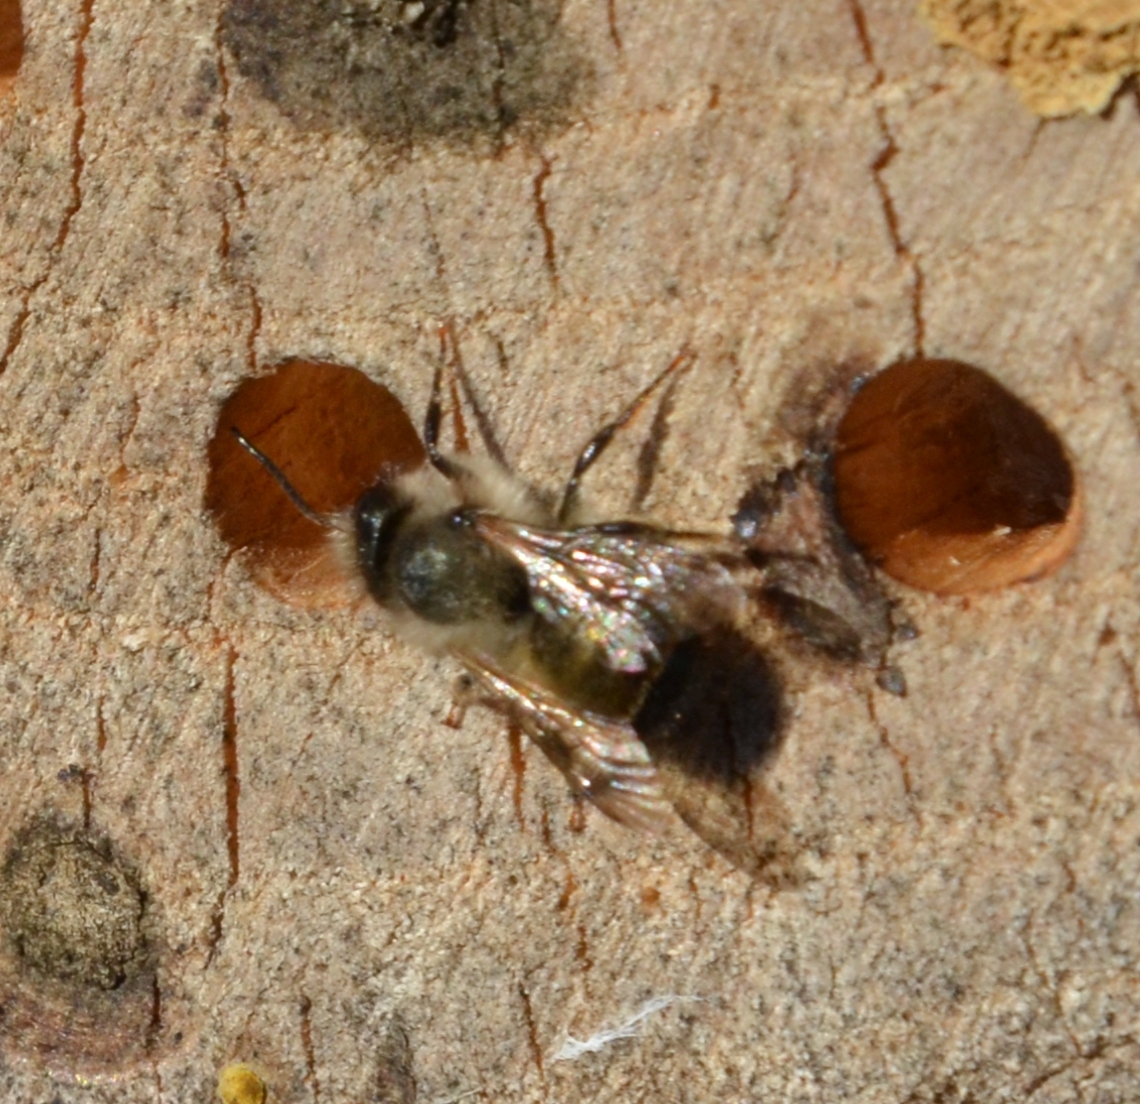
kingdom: Animalia
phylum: Arthropoda
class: Insecta
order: Hymenoptera
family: Megachilidae
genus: Osmia
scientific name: Osmia bicornis
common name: Red mason bee
